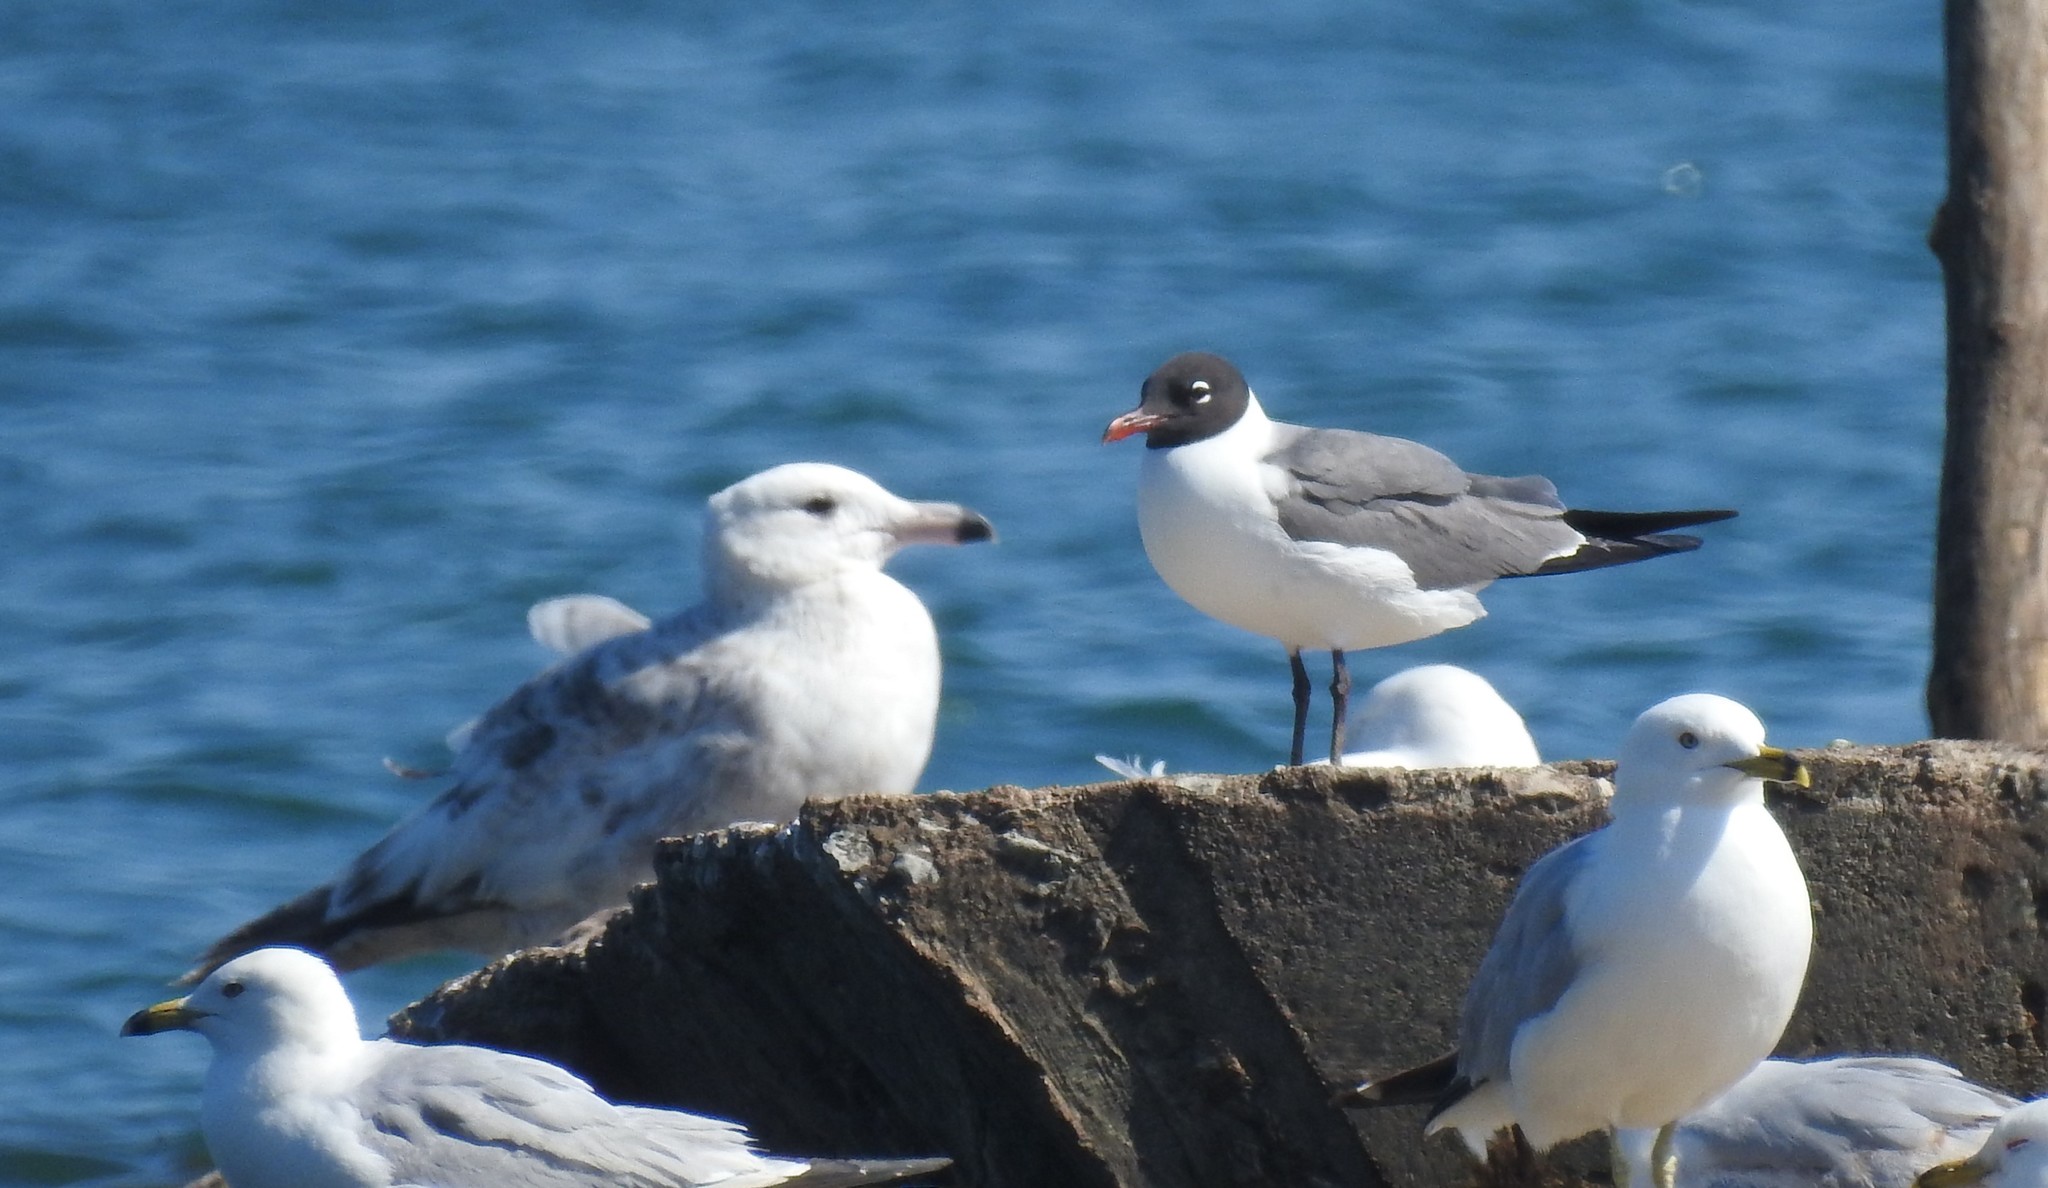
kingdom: Animalia
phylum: Chordata
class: Aves
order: Charadriiformes
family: Laridae
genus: Leucophaeus
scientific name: Leucophaeus atricilla
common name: Laughing gull
